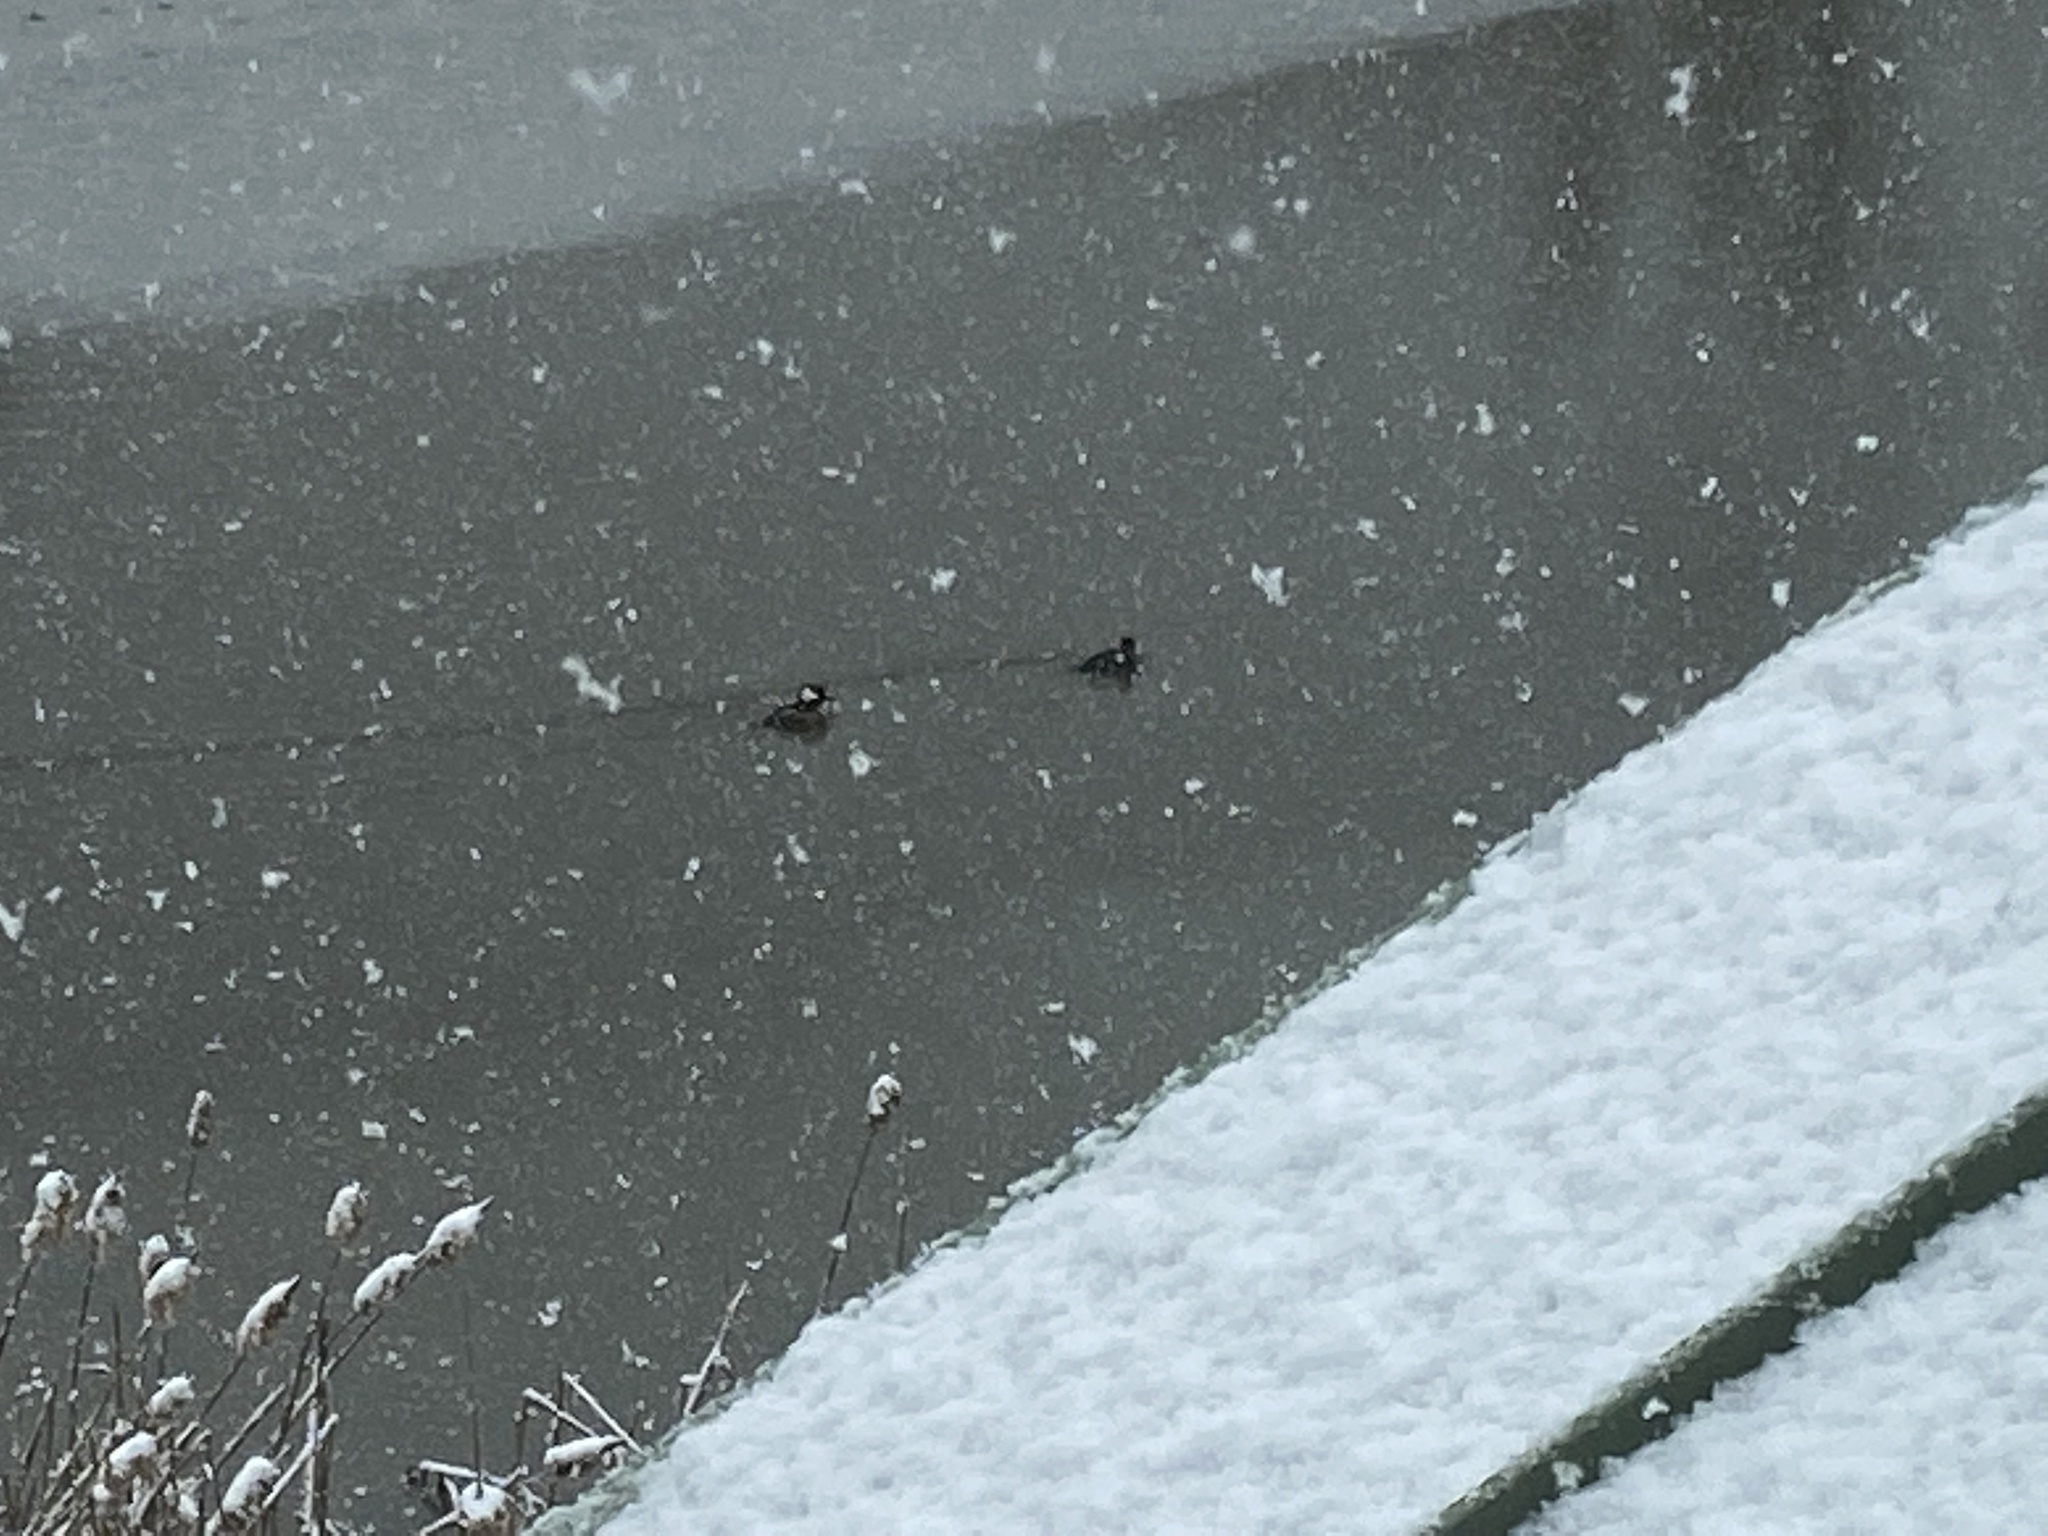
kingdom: Animalia
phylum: Chordata
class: Aves
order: Anseriformes
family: Anatidae
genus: Lophodytes
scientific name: Lophodytes cucullatus
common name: Hooded merganser
